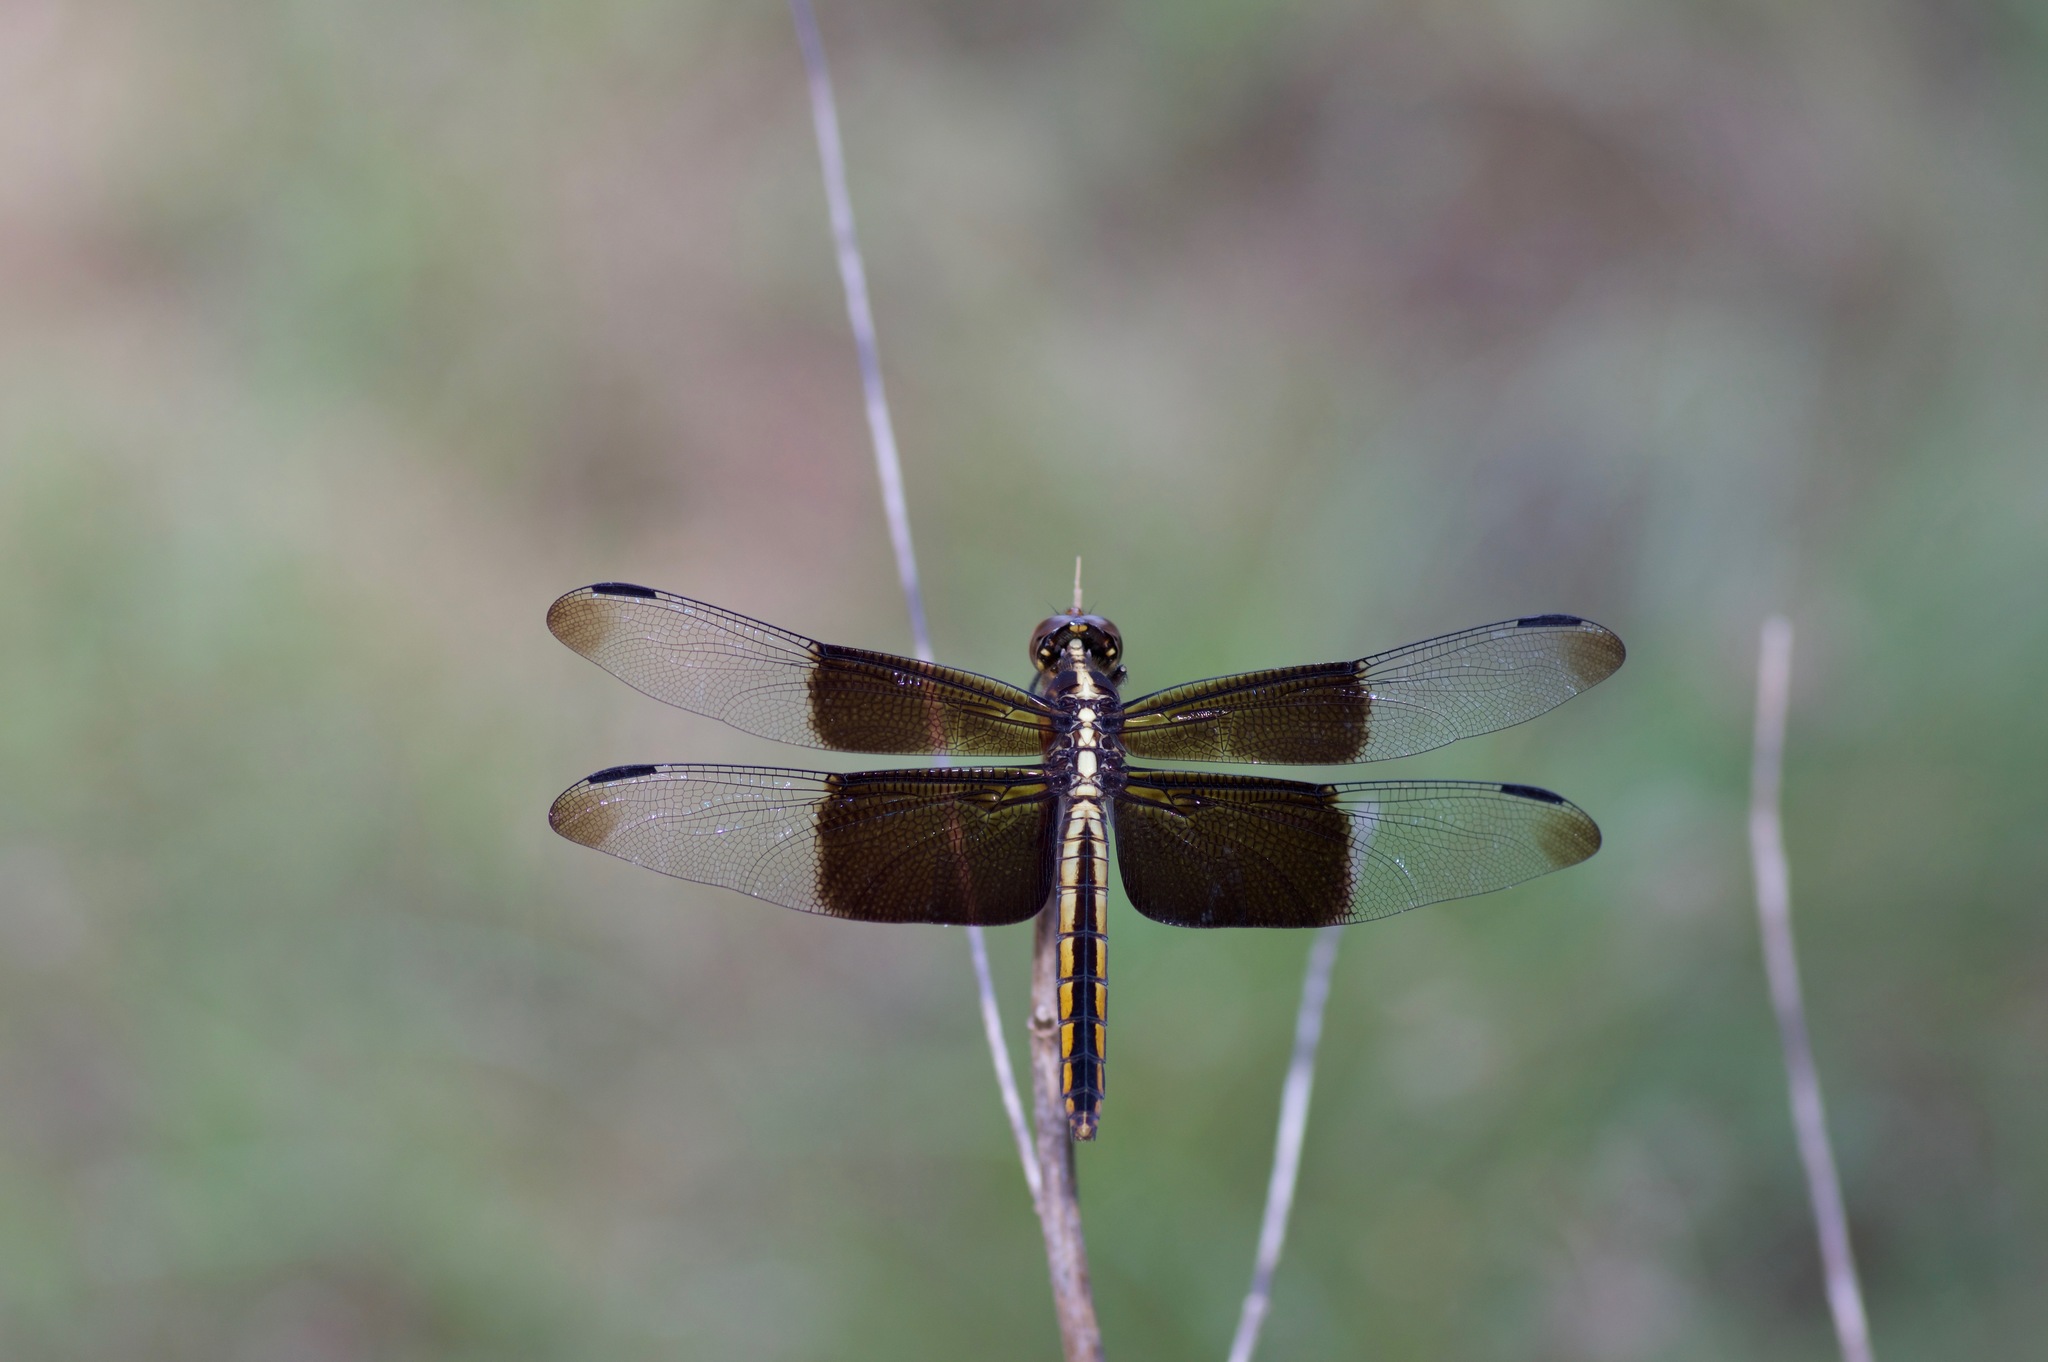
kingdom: Animalia
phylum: Arthropoda
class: Insecta
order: Odonata
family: Libellulidae
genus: Libellula
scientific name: Libellula luctuosa
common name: Widow skimmer
